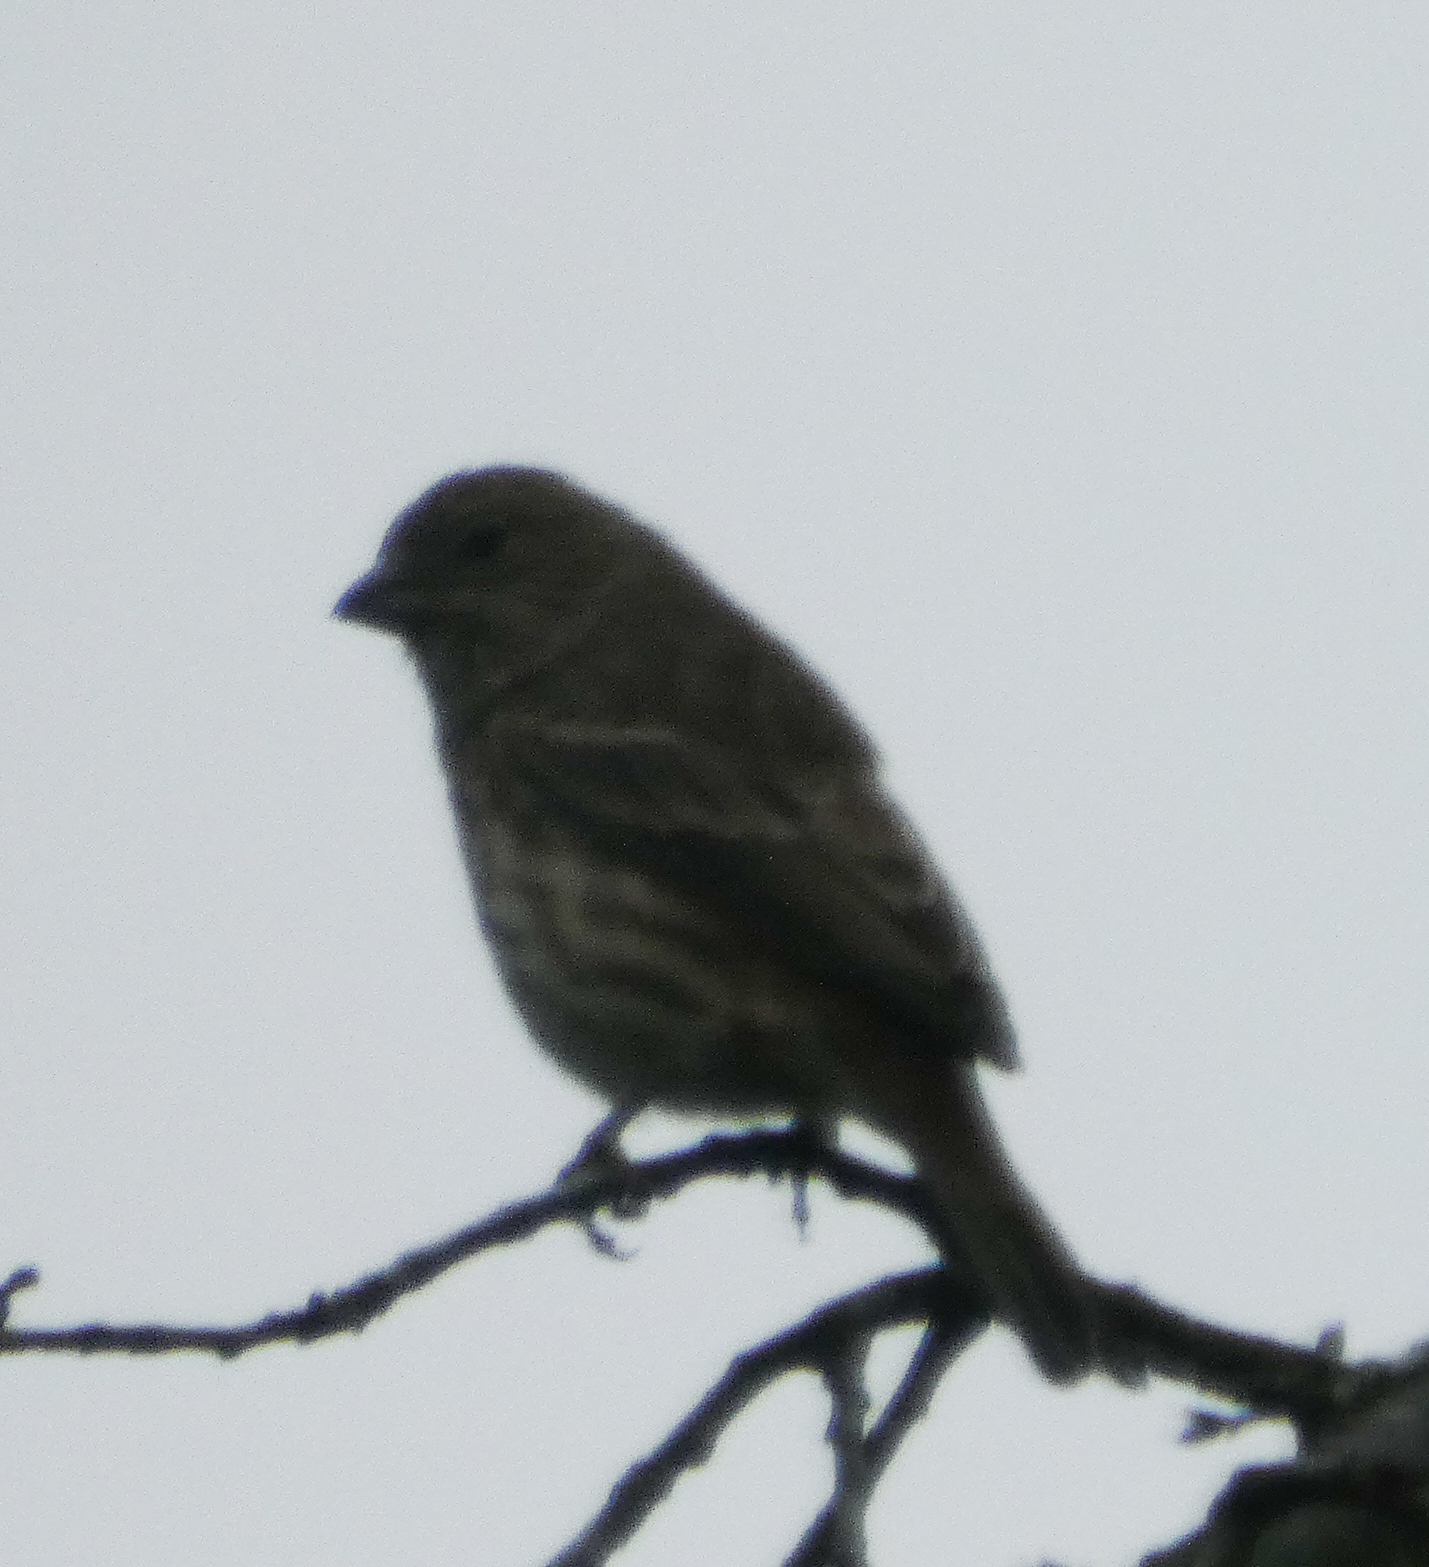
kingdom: Animalia
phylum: Chordata
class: Aves
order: Passeriformes
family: Fringillidae
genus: Haemorhous
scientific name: Haemorhous mexicanus
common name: House finch
